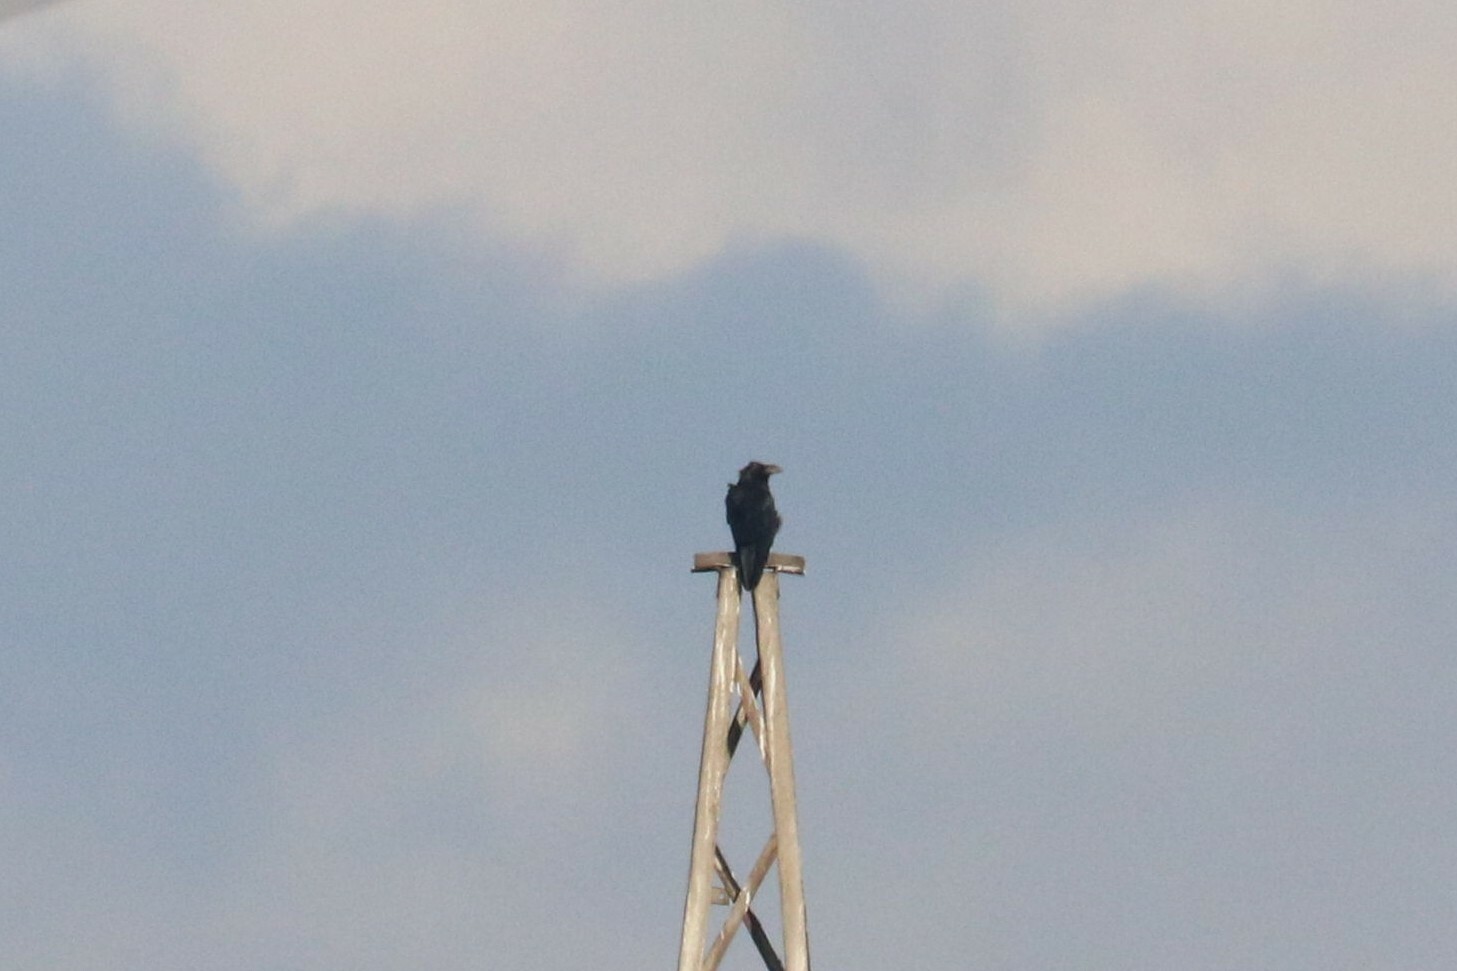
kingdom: Animalia
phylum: Chordata
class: Aves
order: Passeriformes
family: Corvidae
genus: Corvus
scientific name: Corvus corax
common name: Common raven
